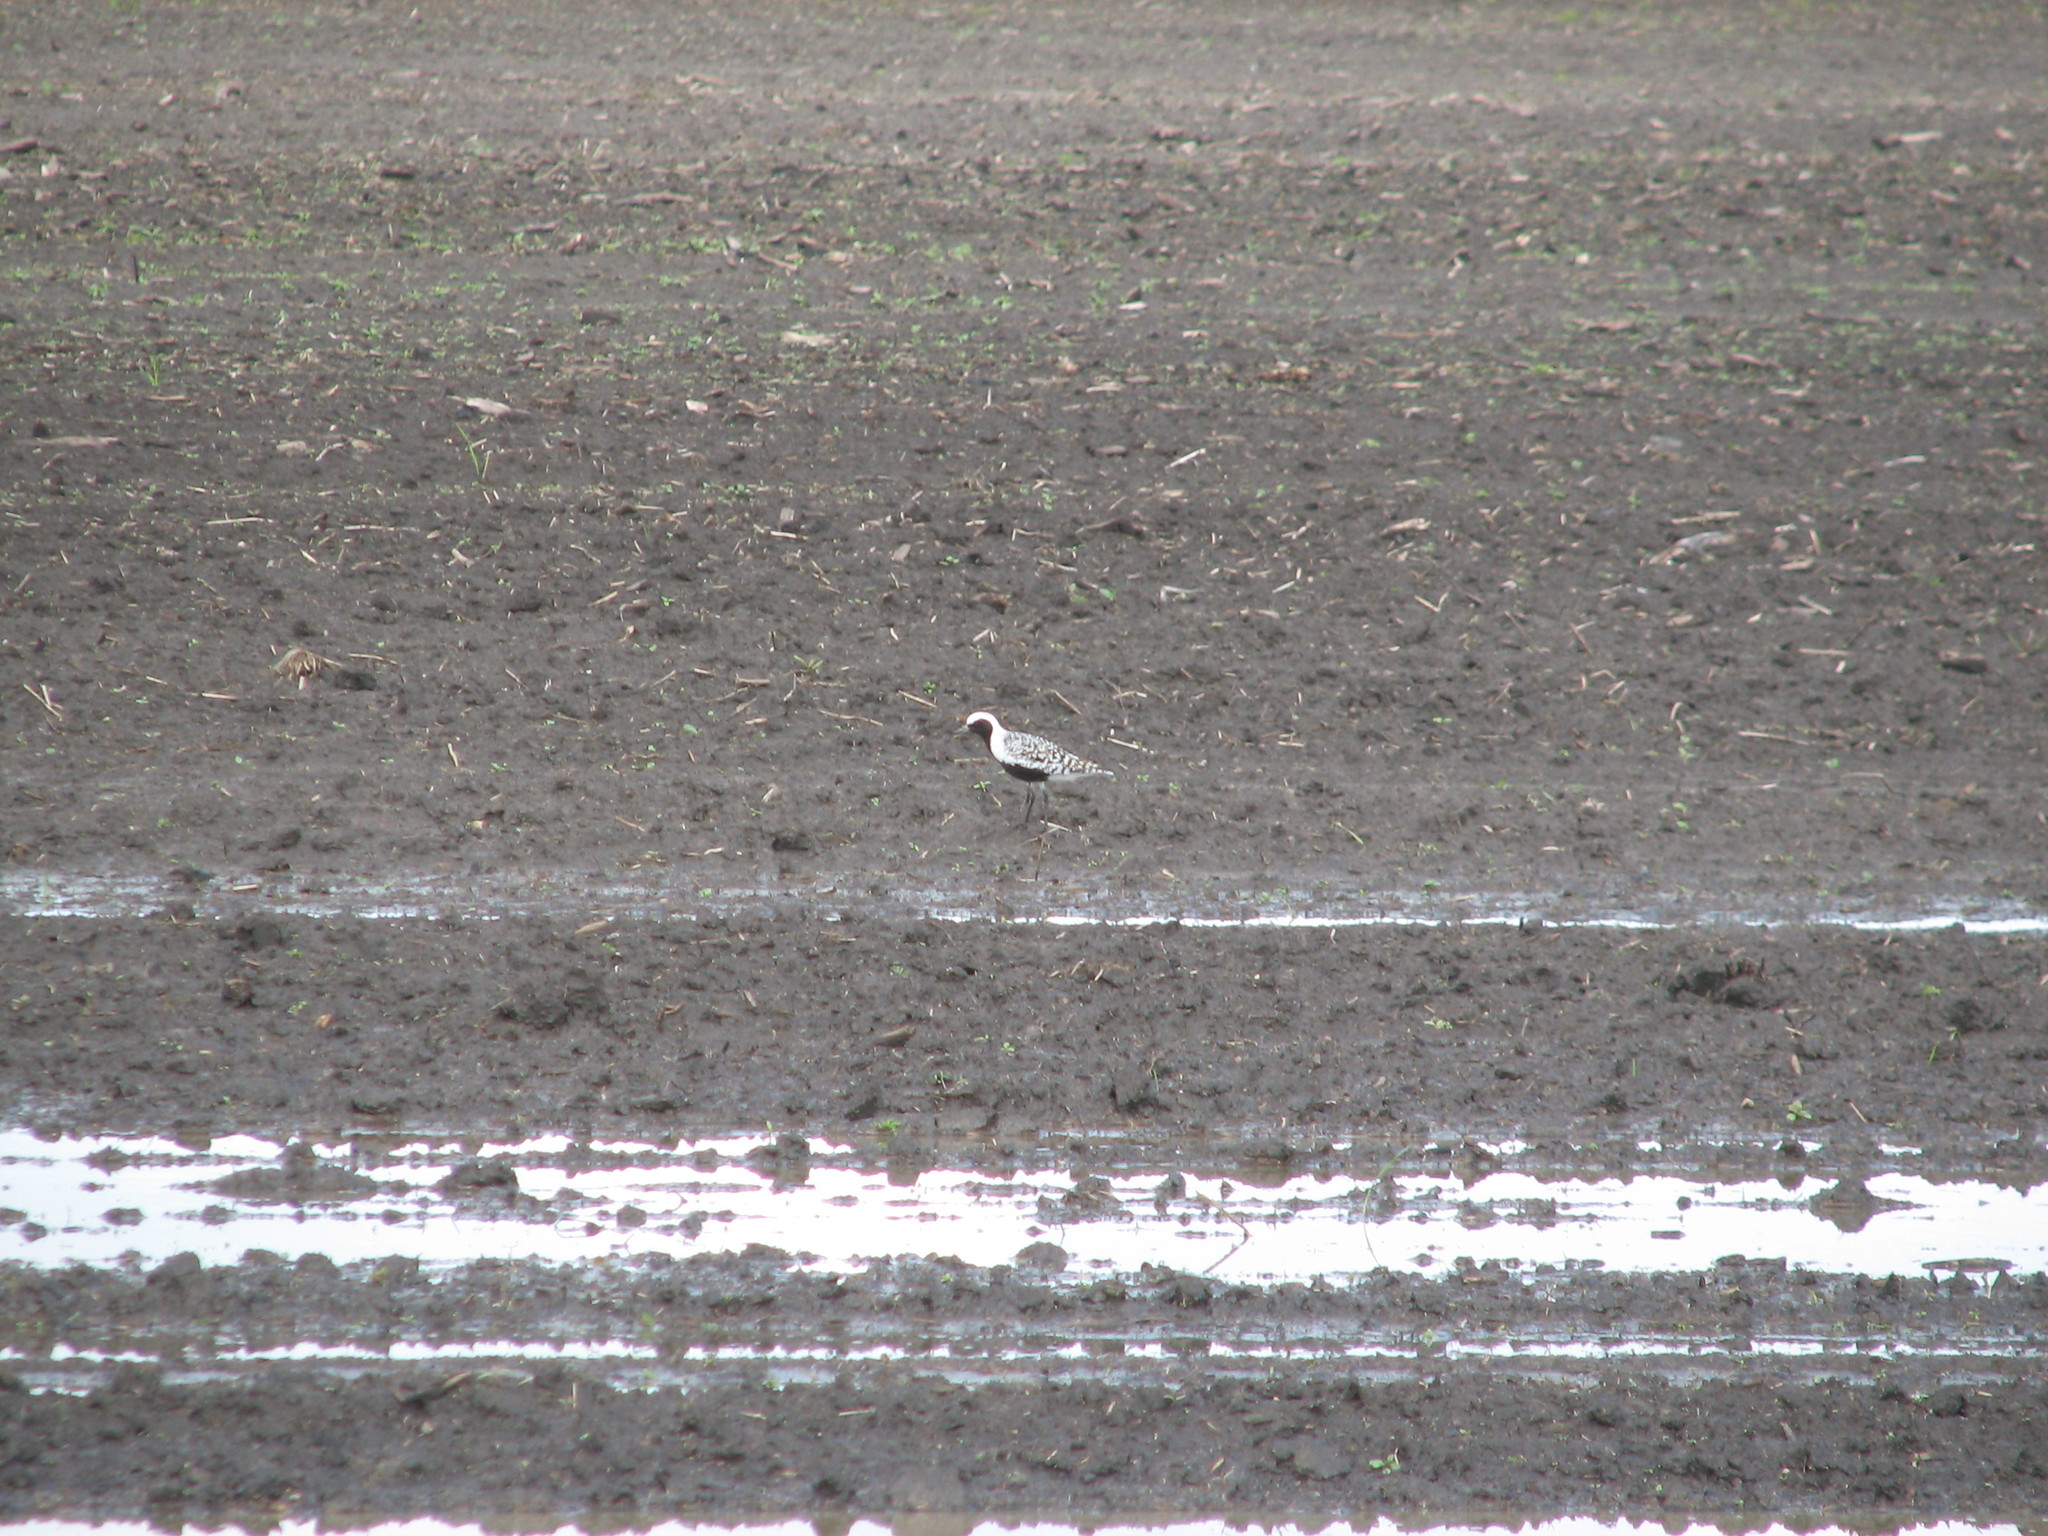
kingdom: Animalia
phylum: Chordata
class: Aves
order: Charadriiformes
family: Charadriidae
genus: Pluvialis
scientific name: Pluvialis squatarola
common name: Grey plover
